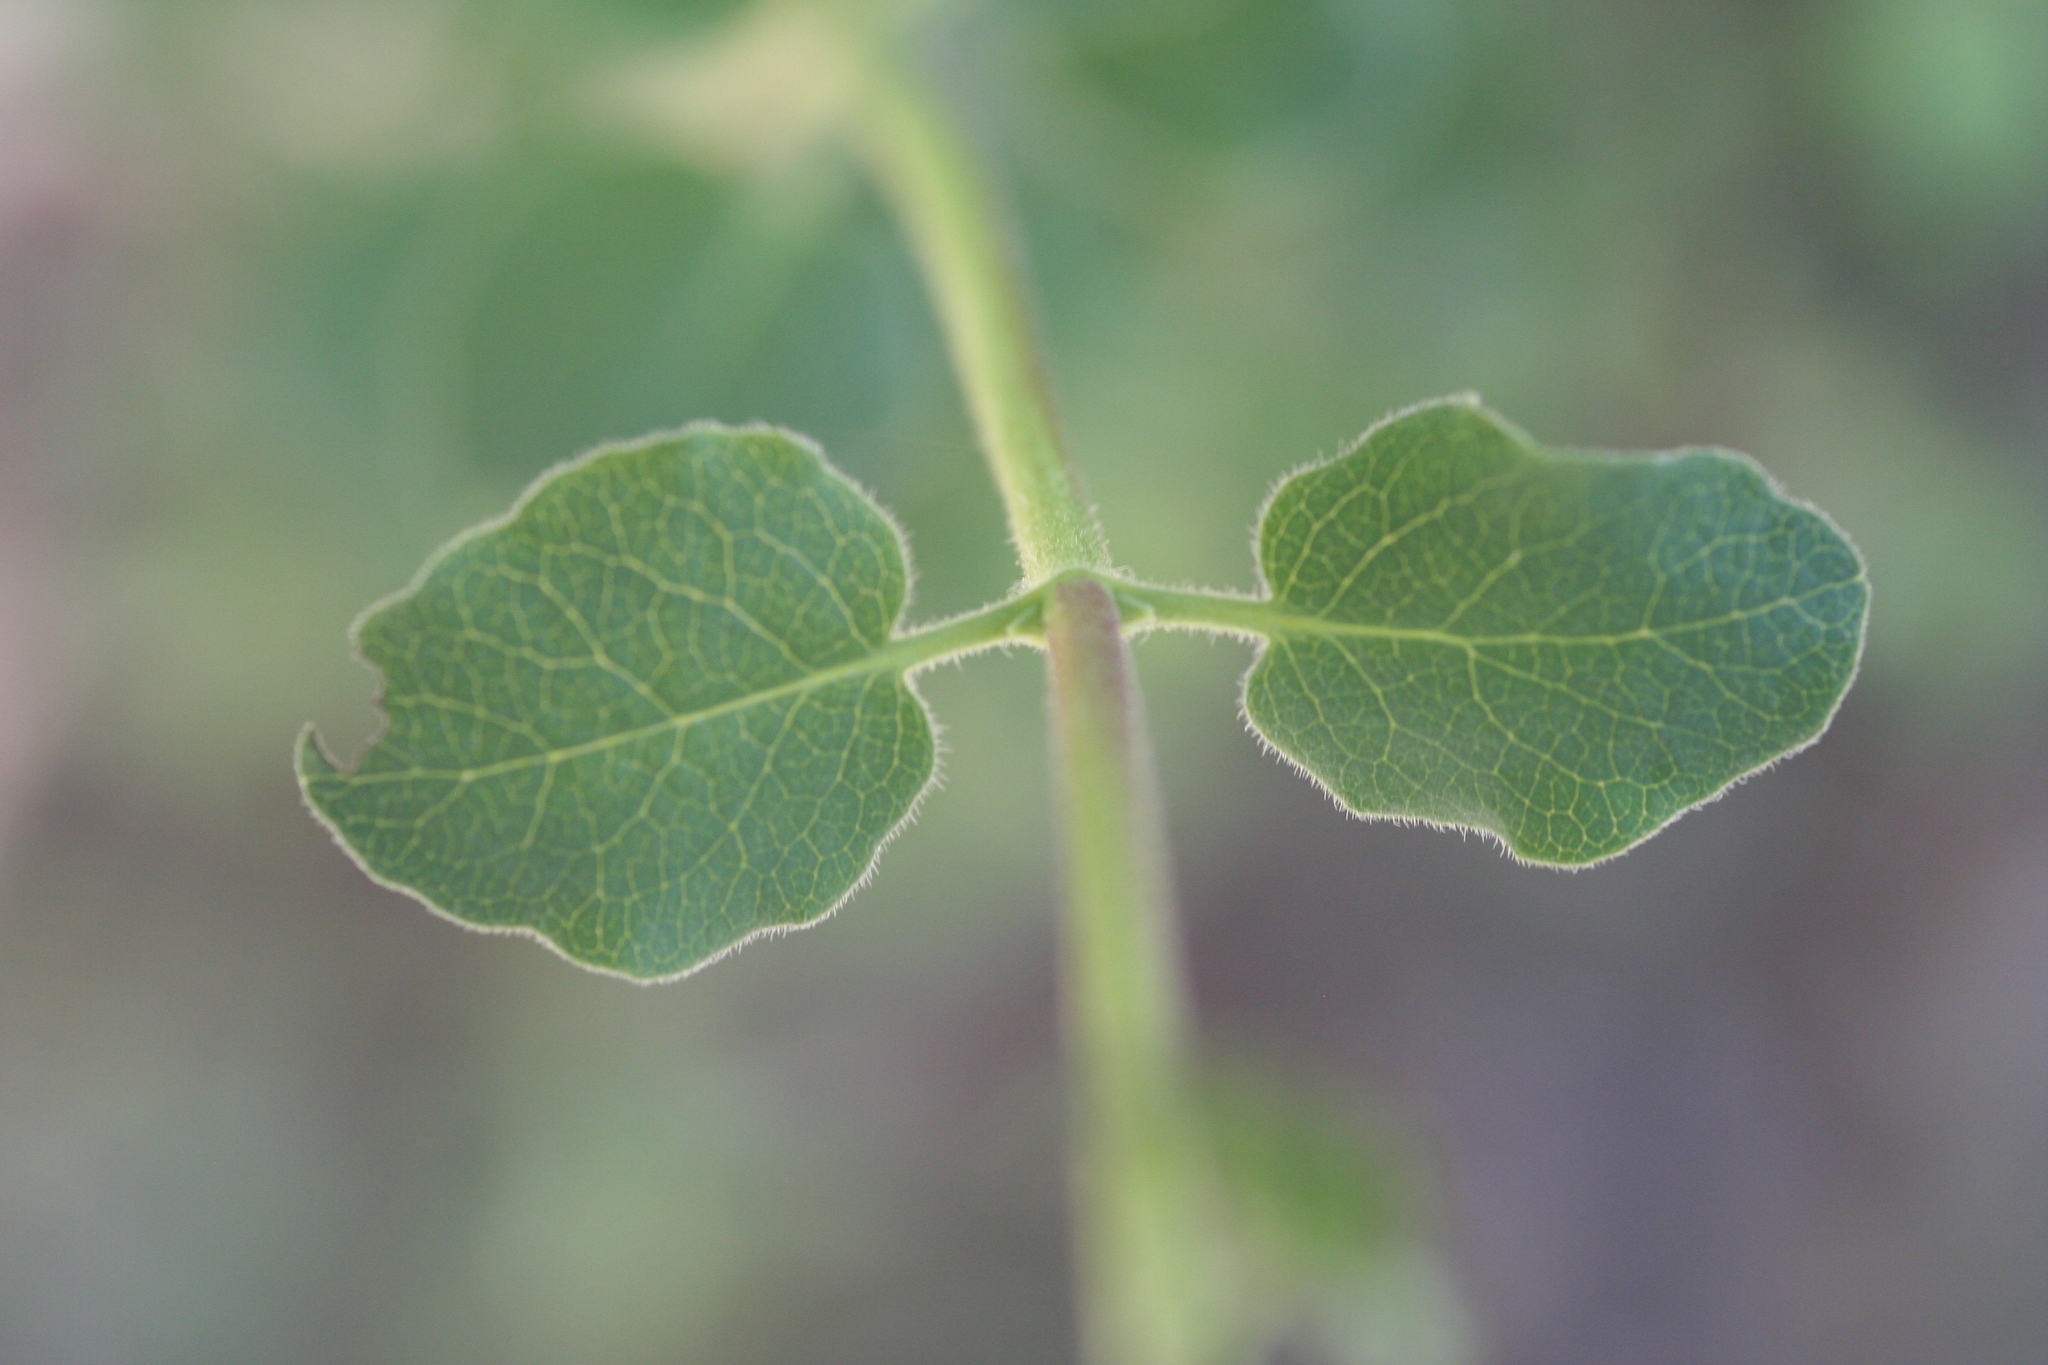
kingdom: Plantae
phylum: Tracheophyta
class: Magnoliopsida
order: Dipsacales
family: Caprifoliaceae
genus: Lonicera
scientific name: Lonicera subspicata
